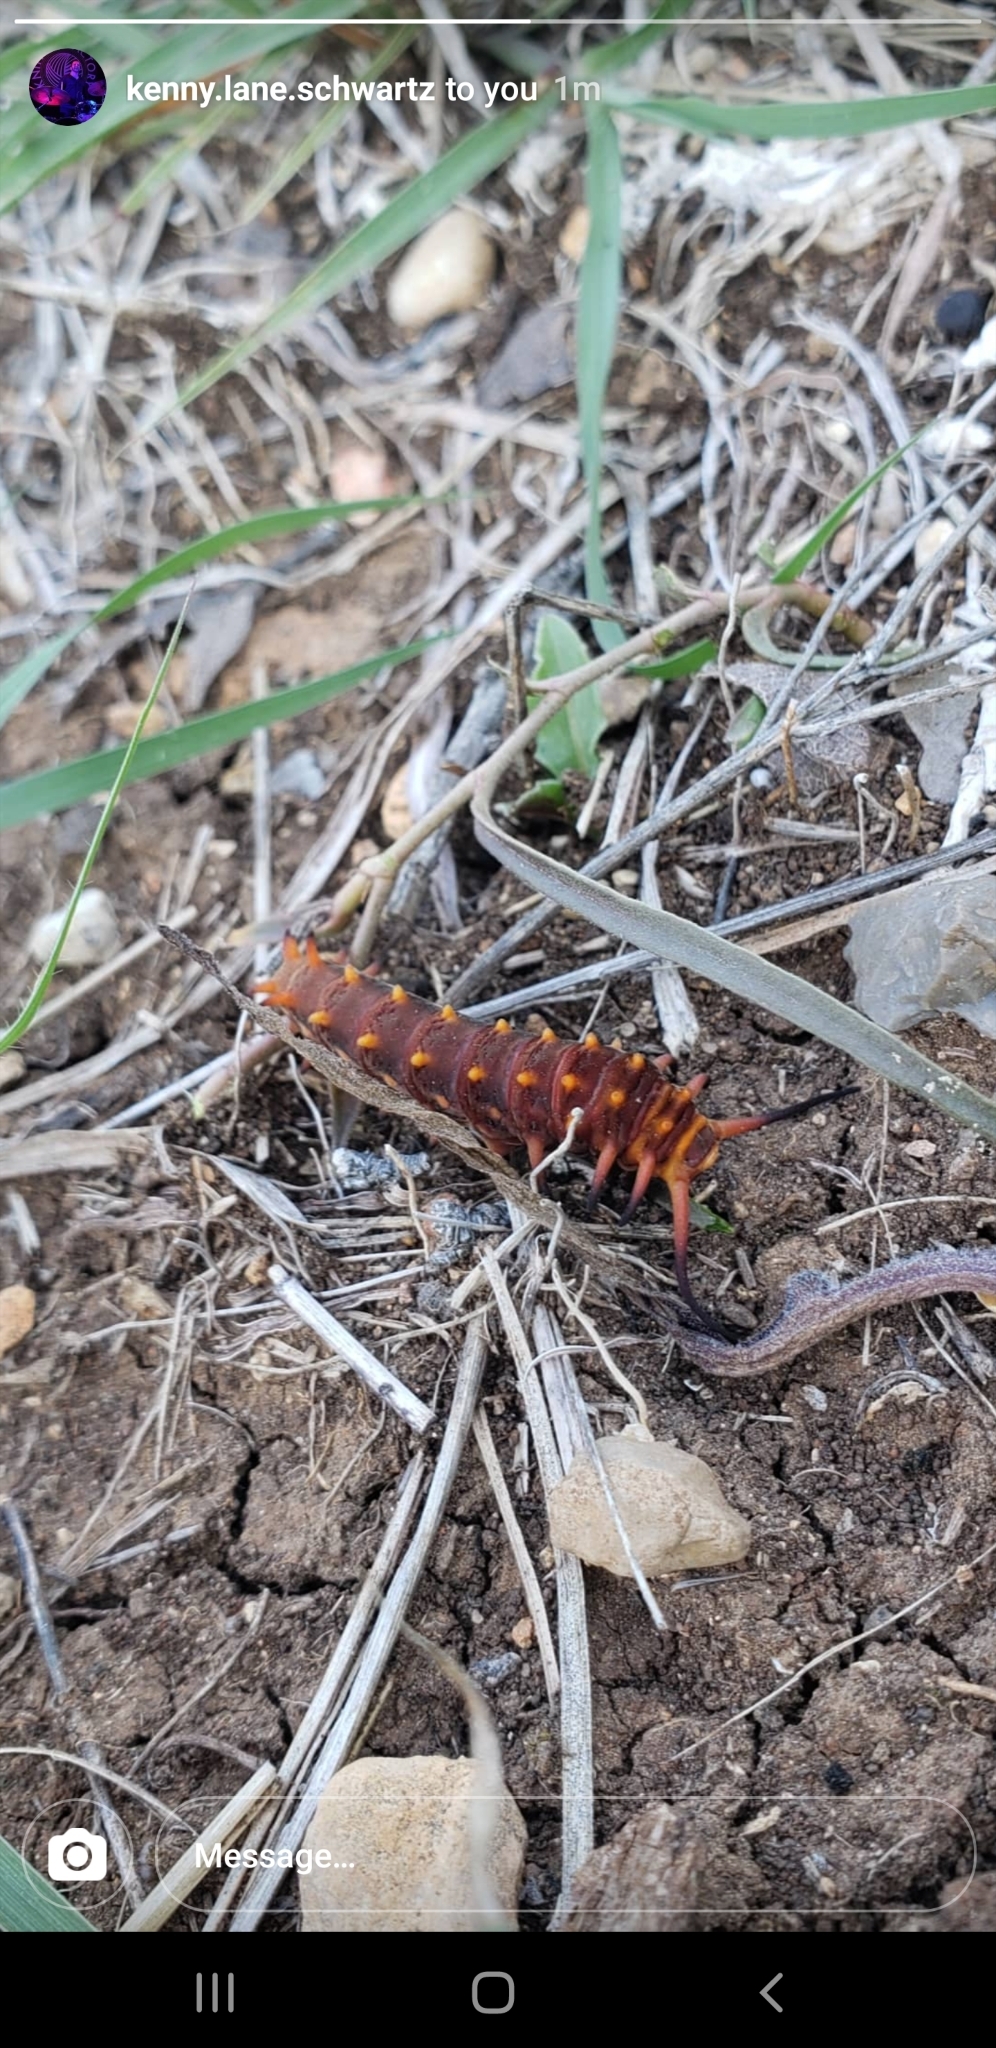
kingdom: Animalia
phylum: Arthropoda
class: Insecta
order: Lepidoptera
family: Papilionidae
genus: Battus
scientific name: Battus philenor
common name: Pipevine swallowtail
